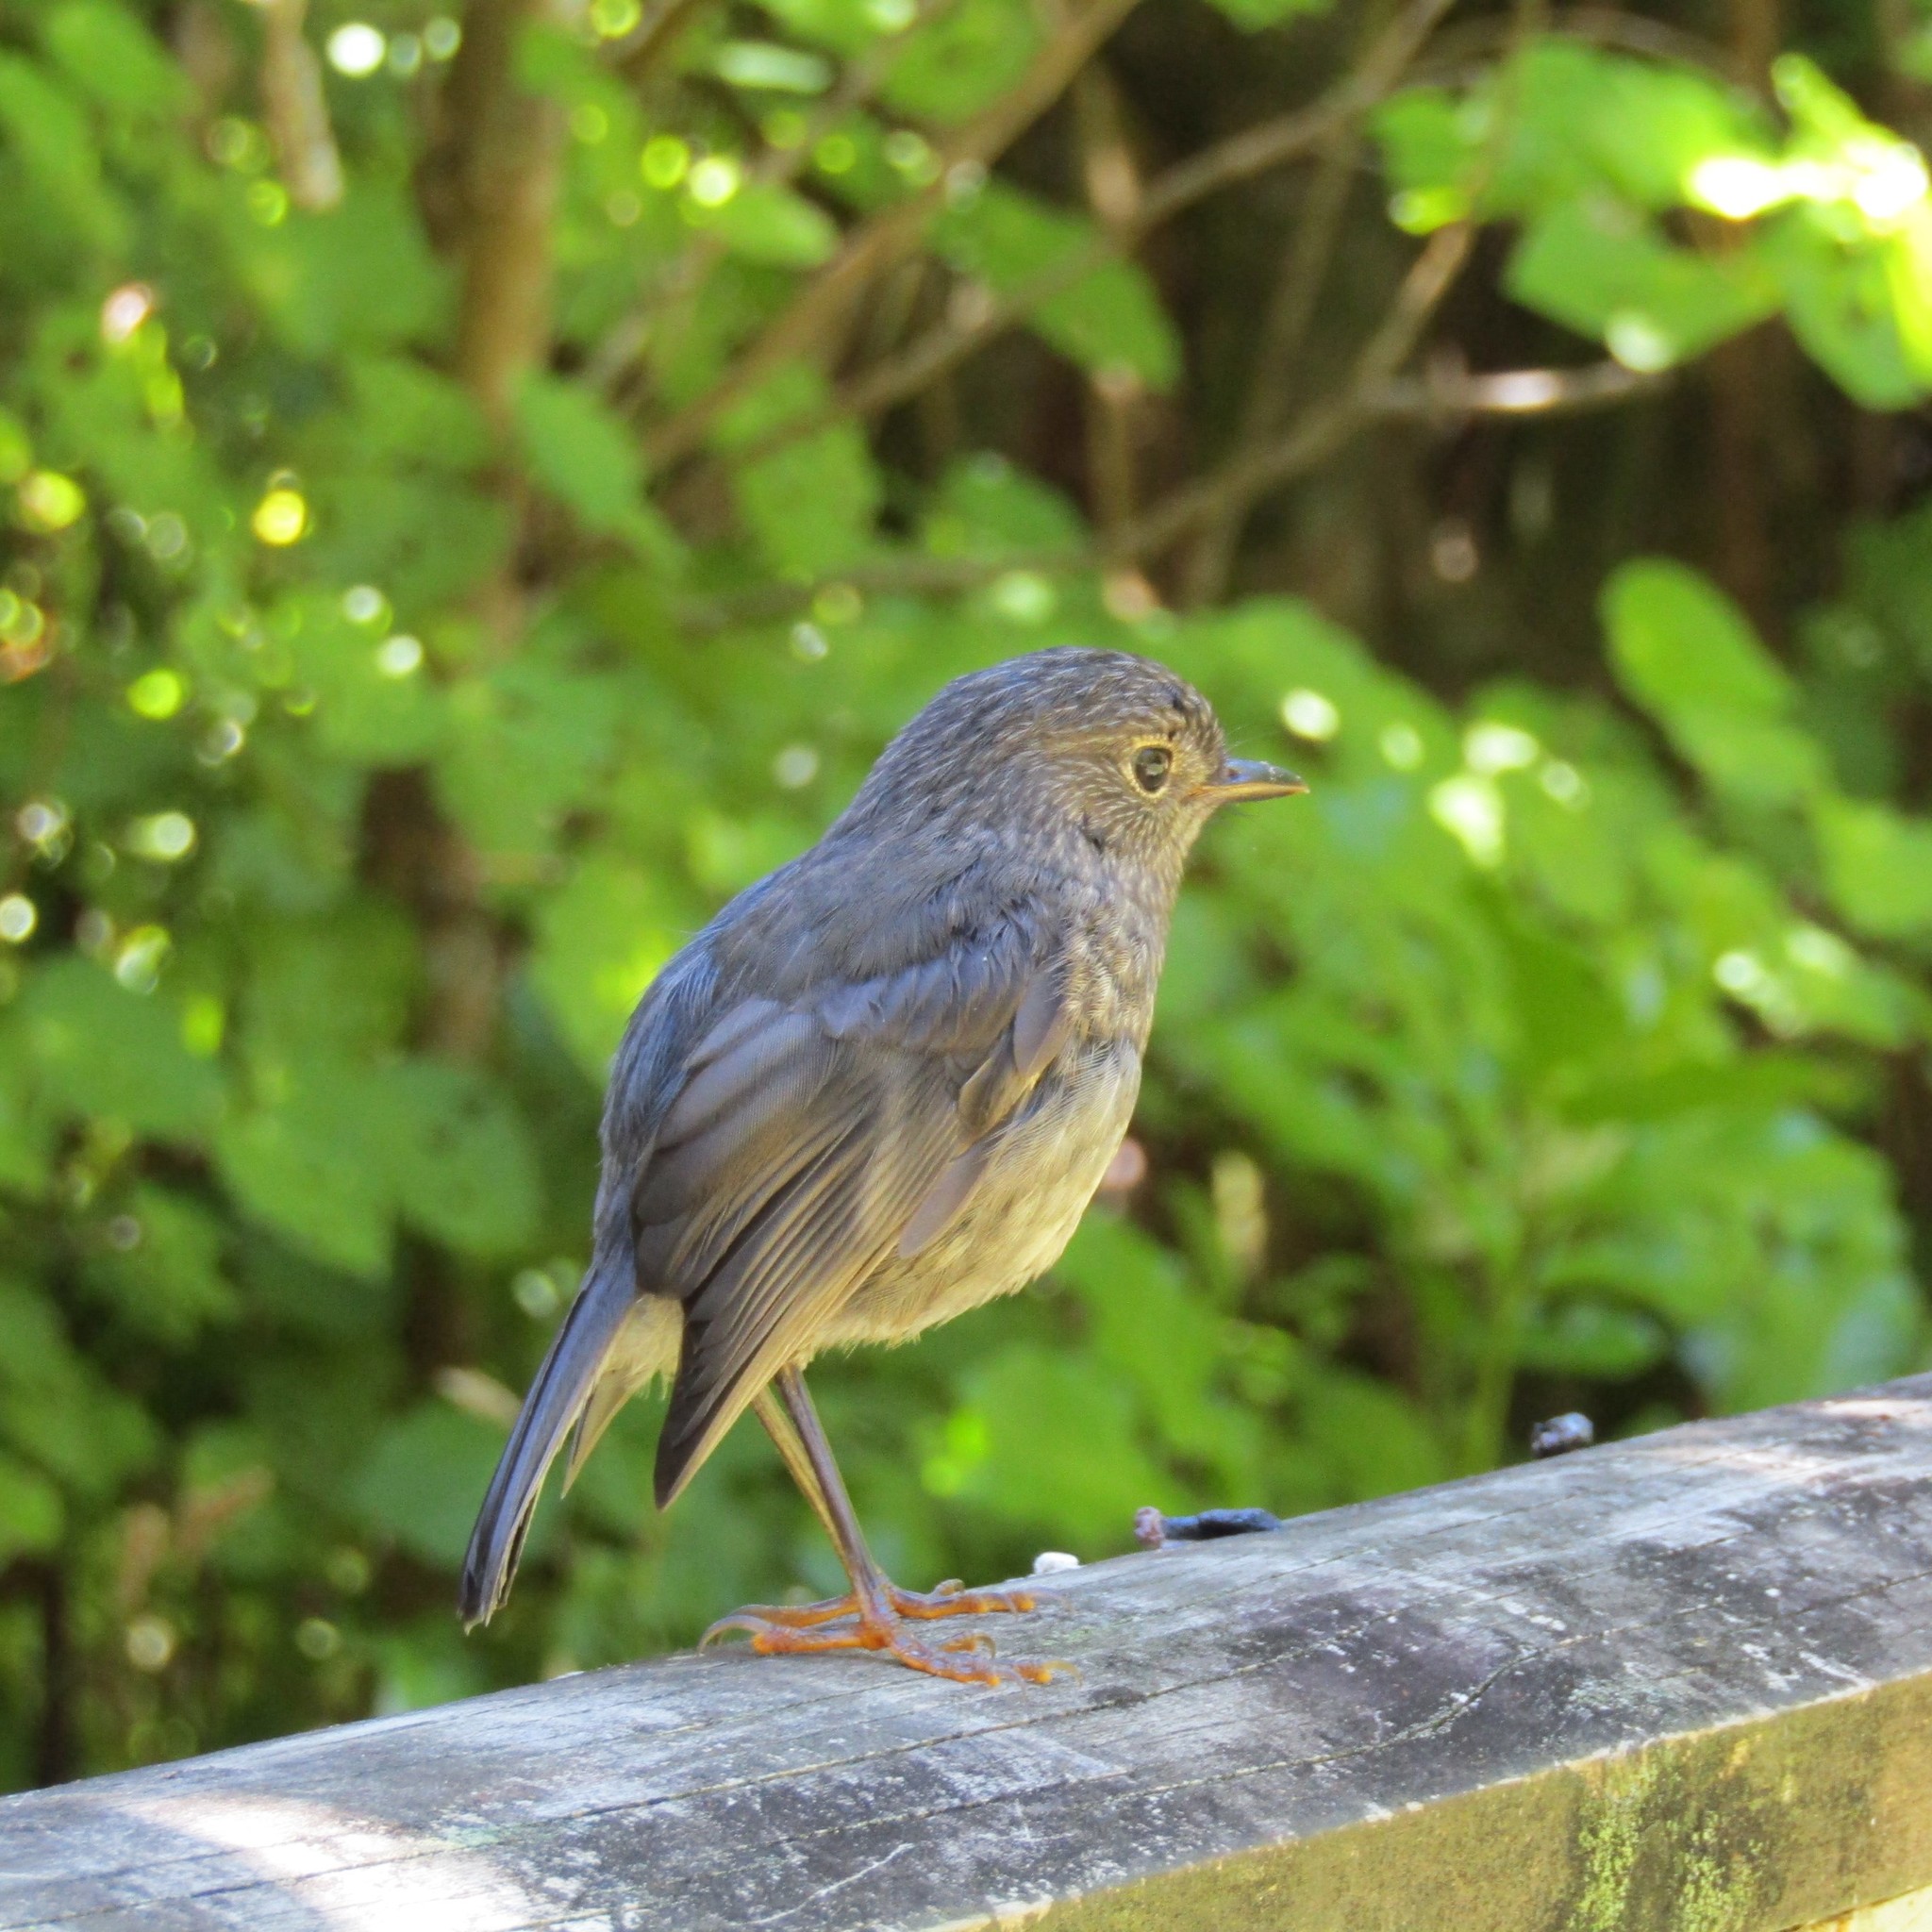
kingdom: Animalia
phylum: Chordata
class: Aves
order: Passeriformes
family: Petroicidae
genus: Petroica
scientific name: Petroica australis
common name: New zealand robin
